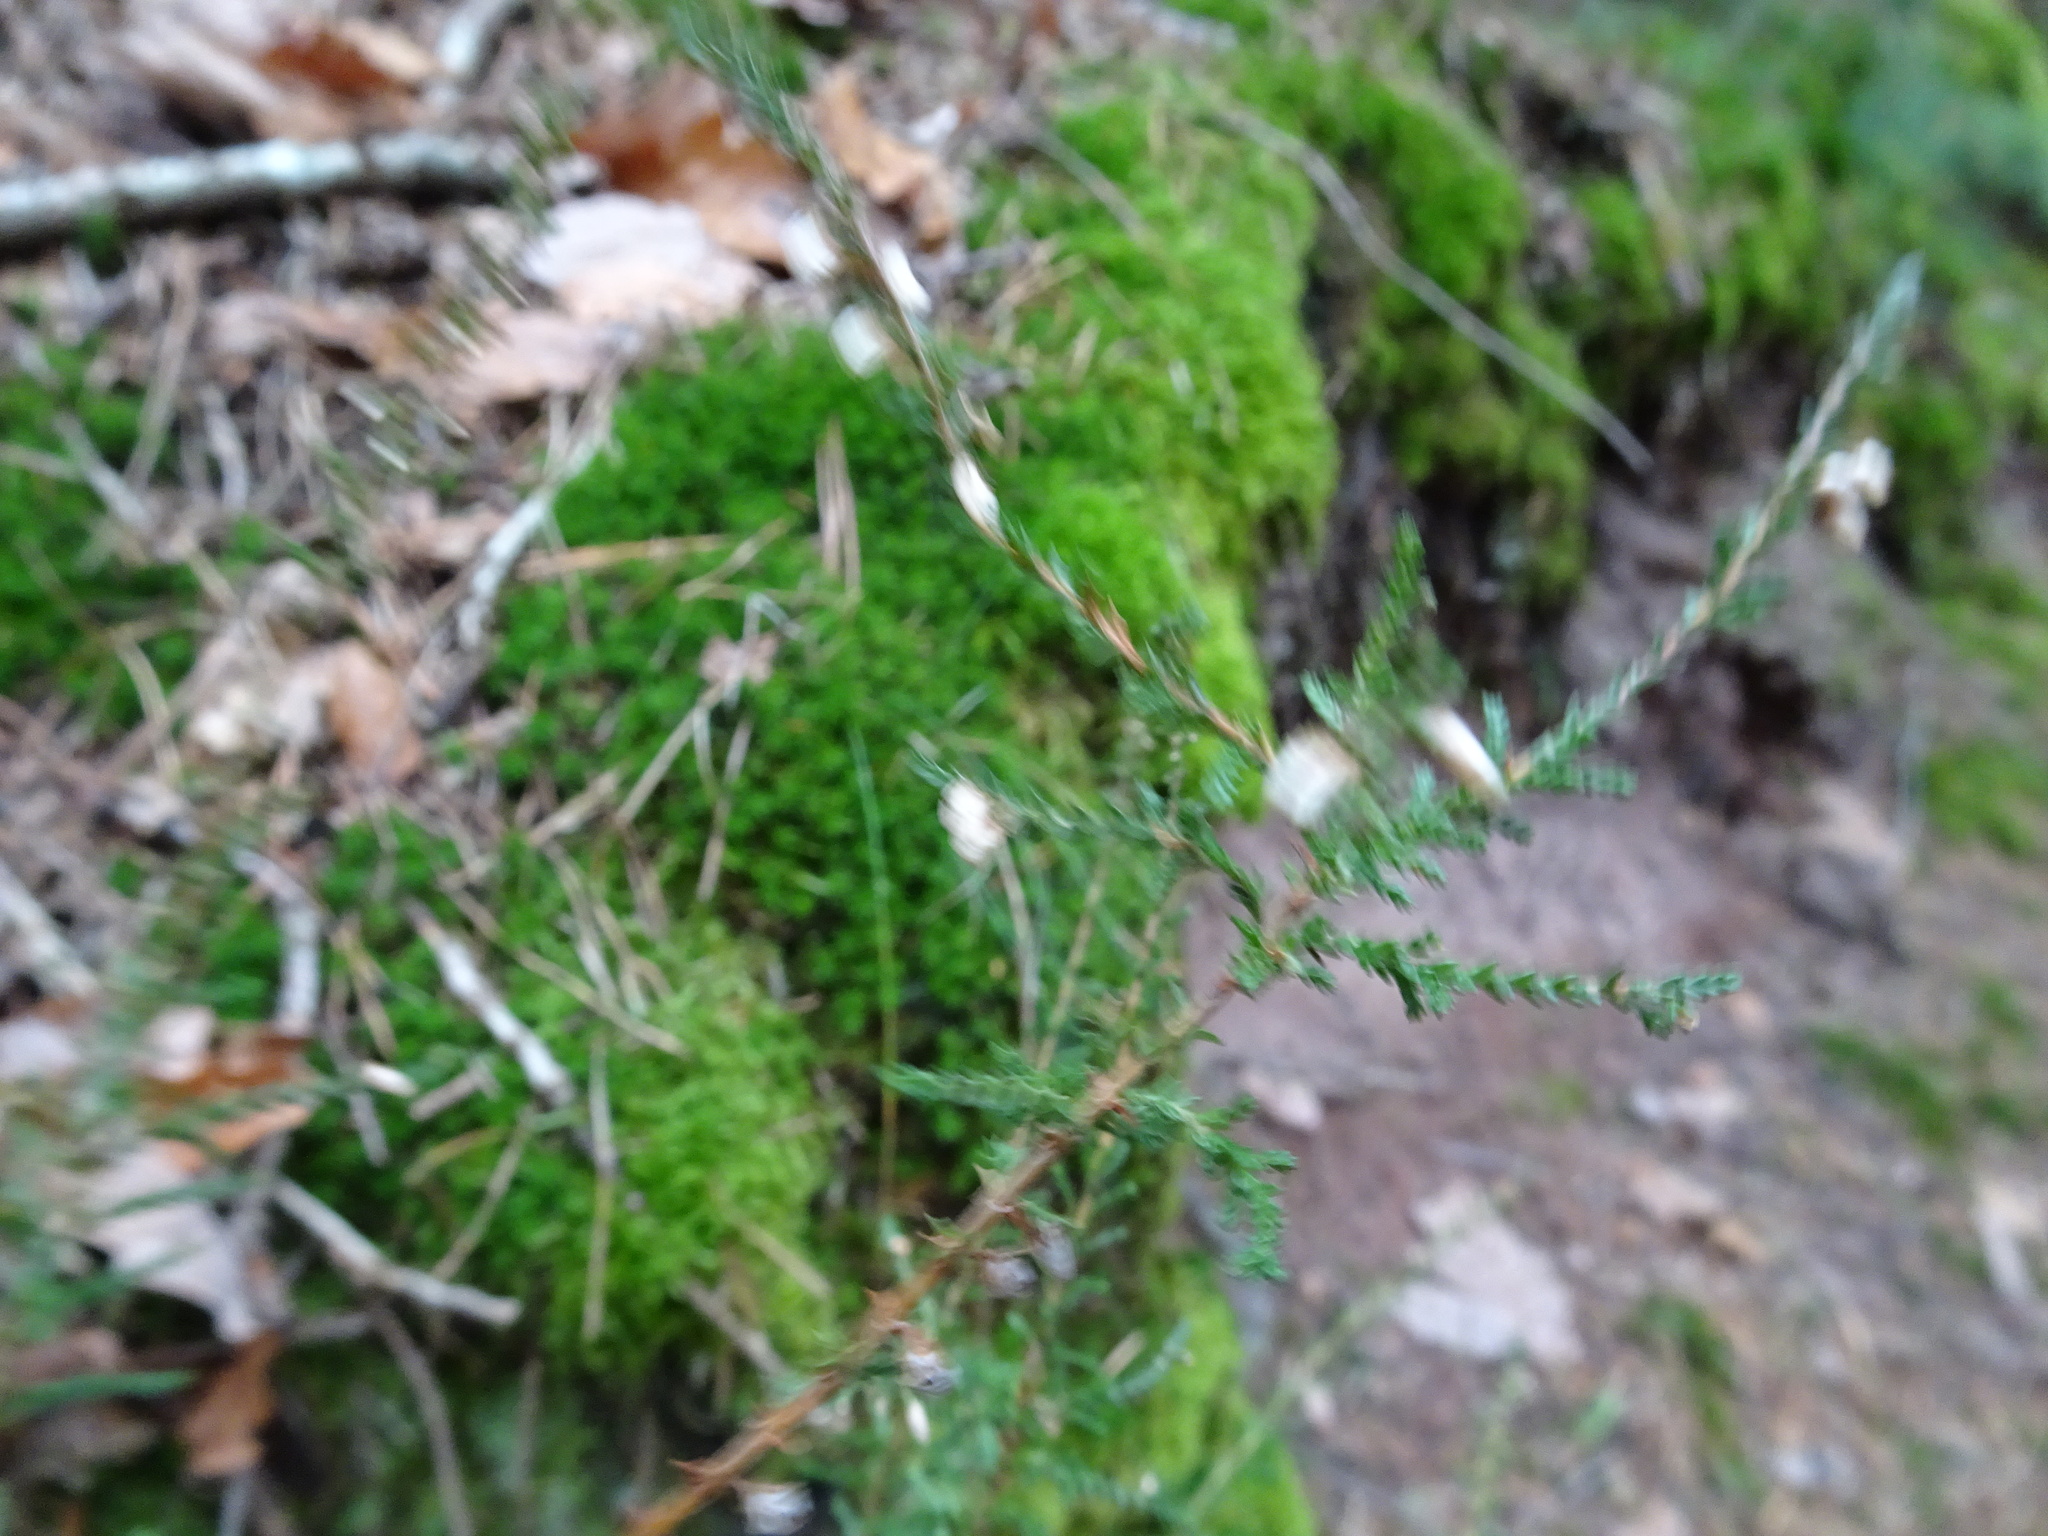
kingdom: Plantae
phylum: Tracheophyta
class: Magnoliopsida
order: Ericales
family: Ericaceae
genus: Calluna
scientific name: Calluna vulgaris
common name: Heather
